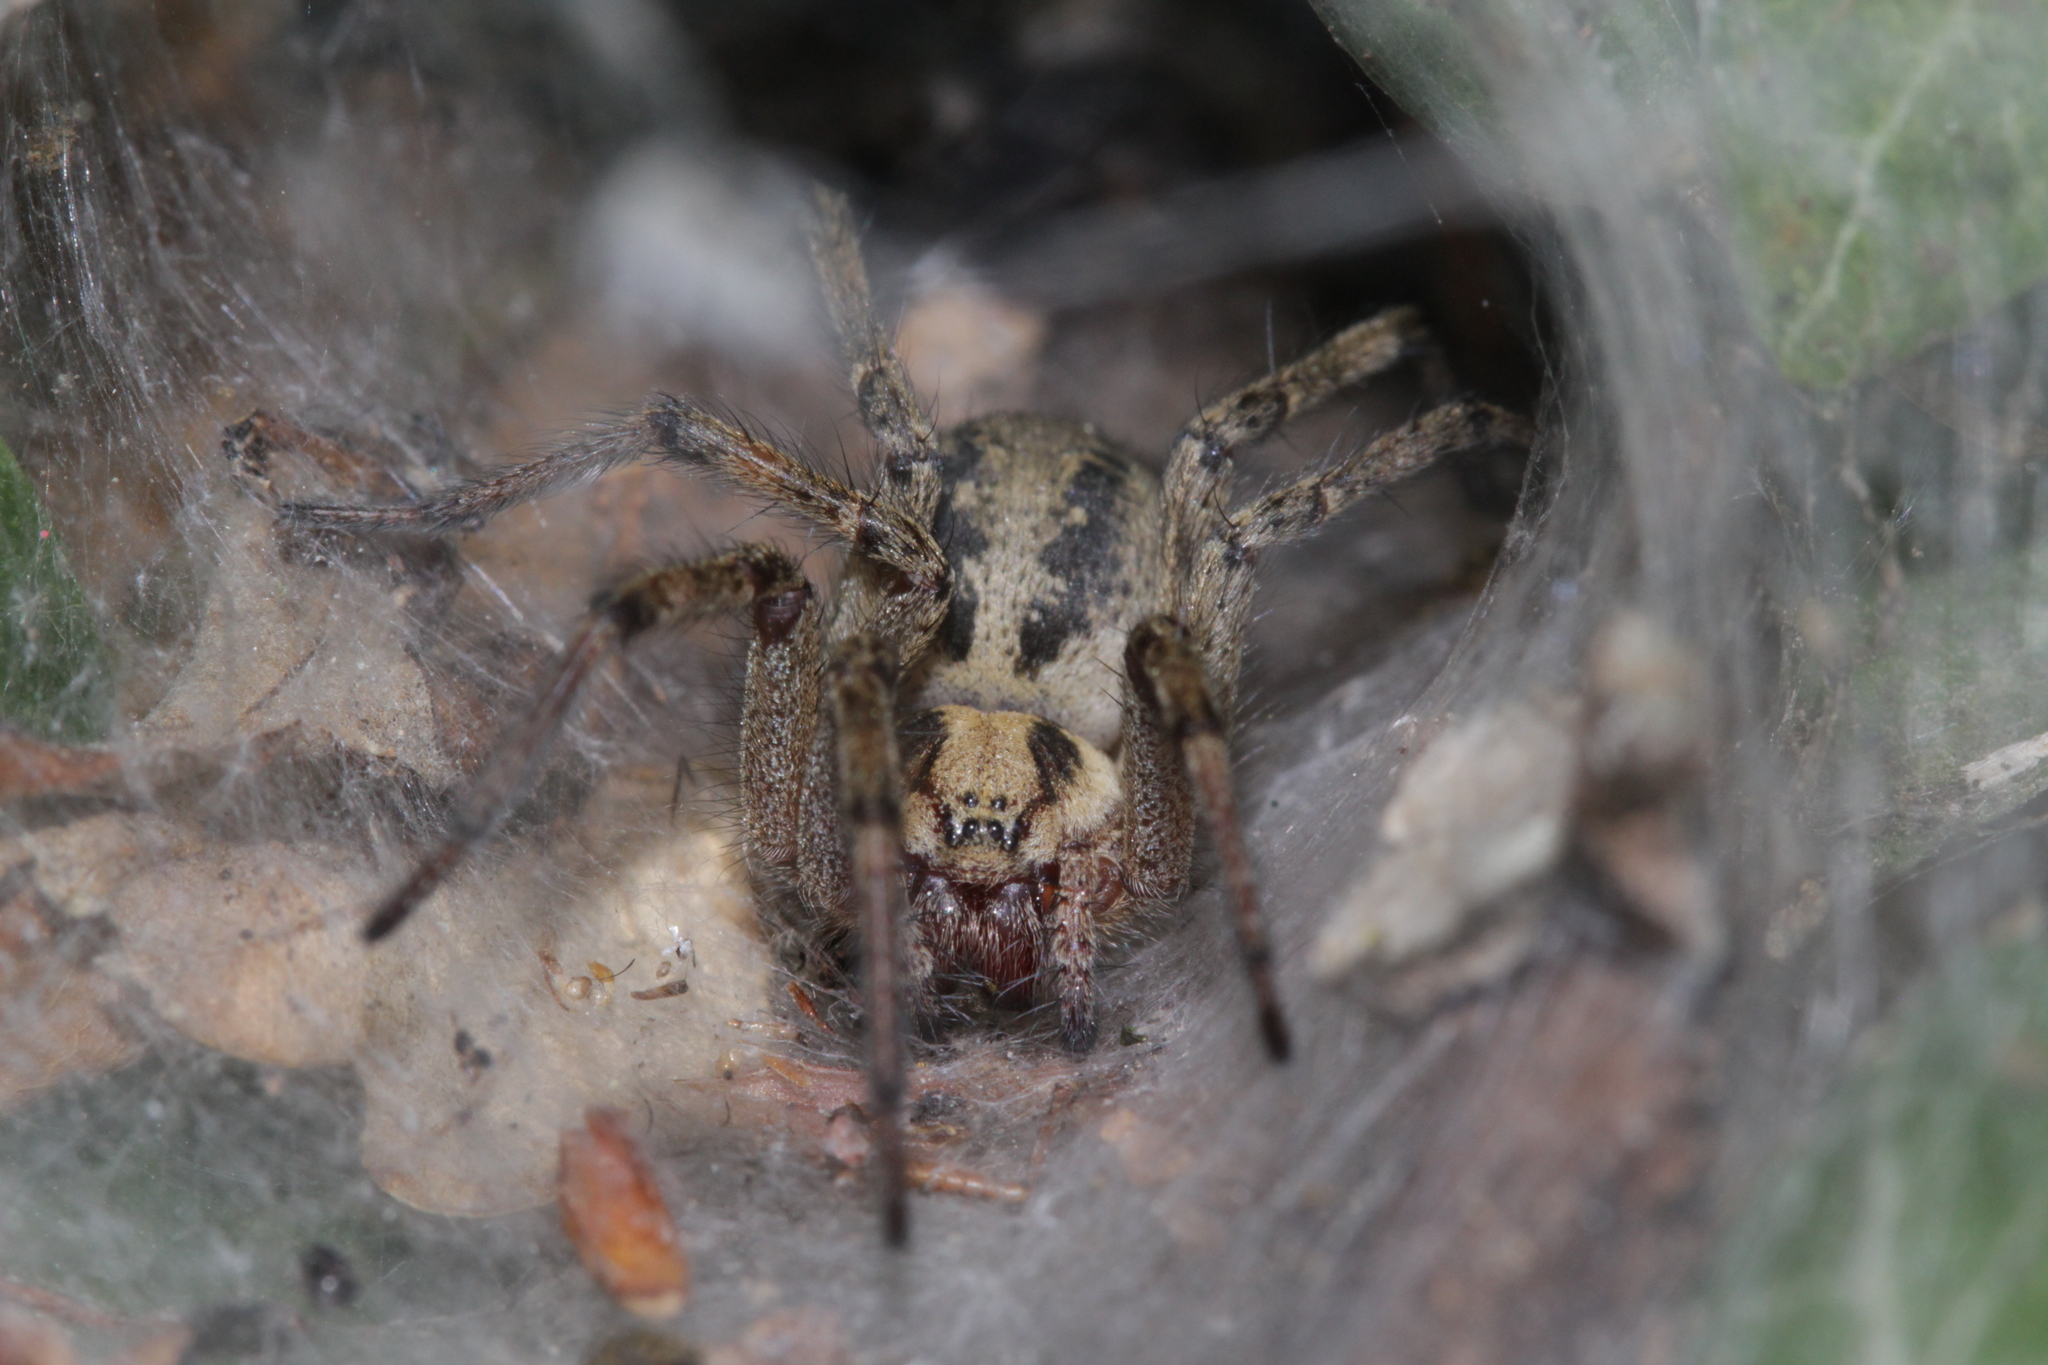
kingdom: Animalia
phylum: Arthropoda
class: Arachnida
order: Araneae
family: Agelenidae
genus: Agelena
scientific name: Agelena labyrinthica
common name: Labyrinth spider
